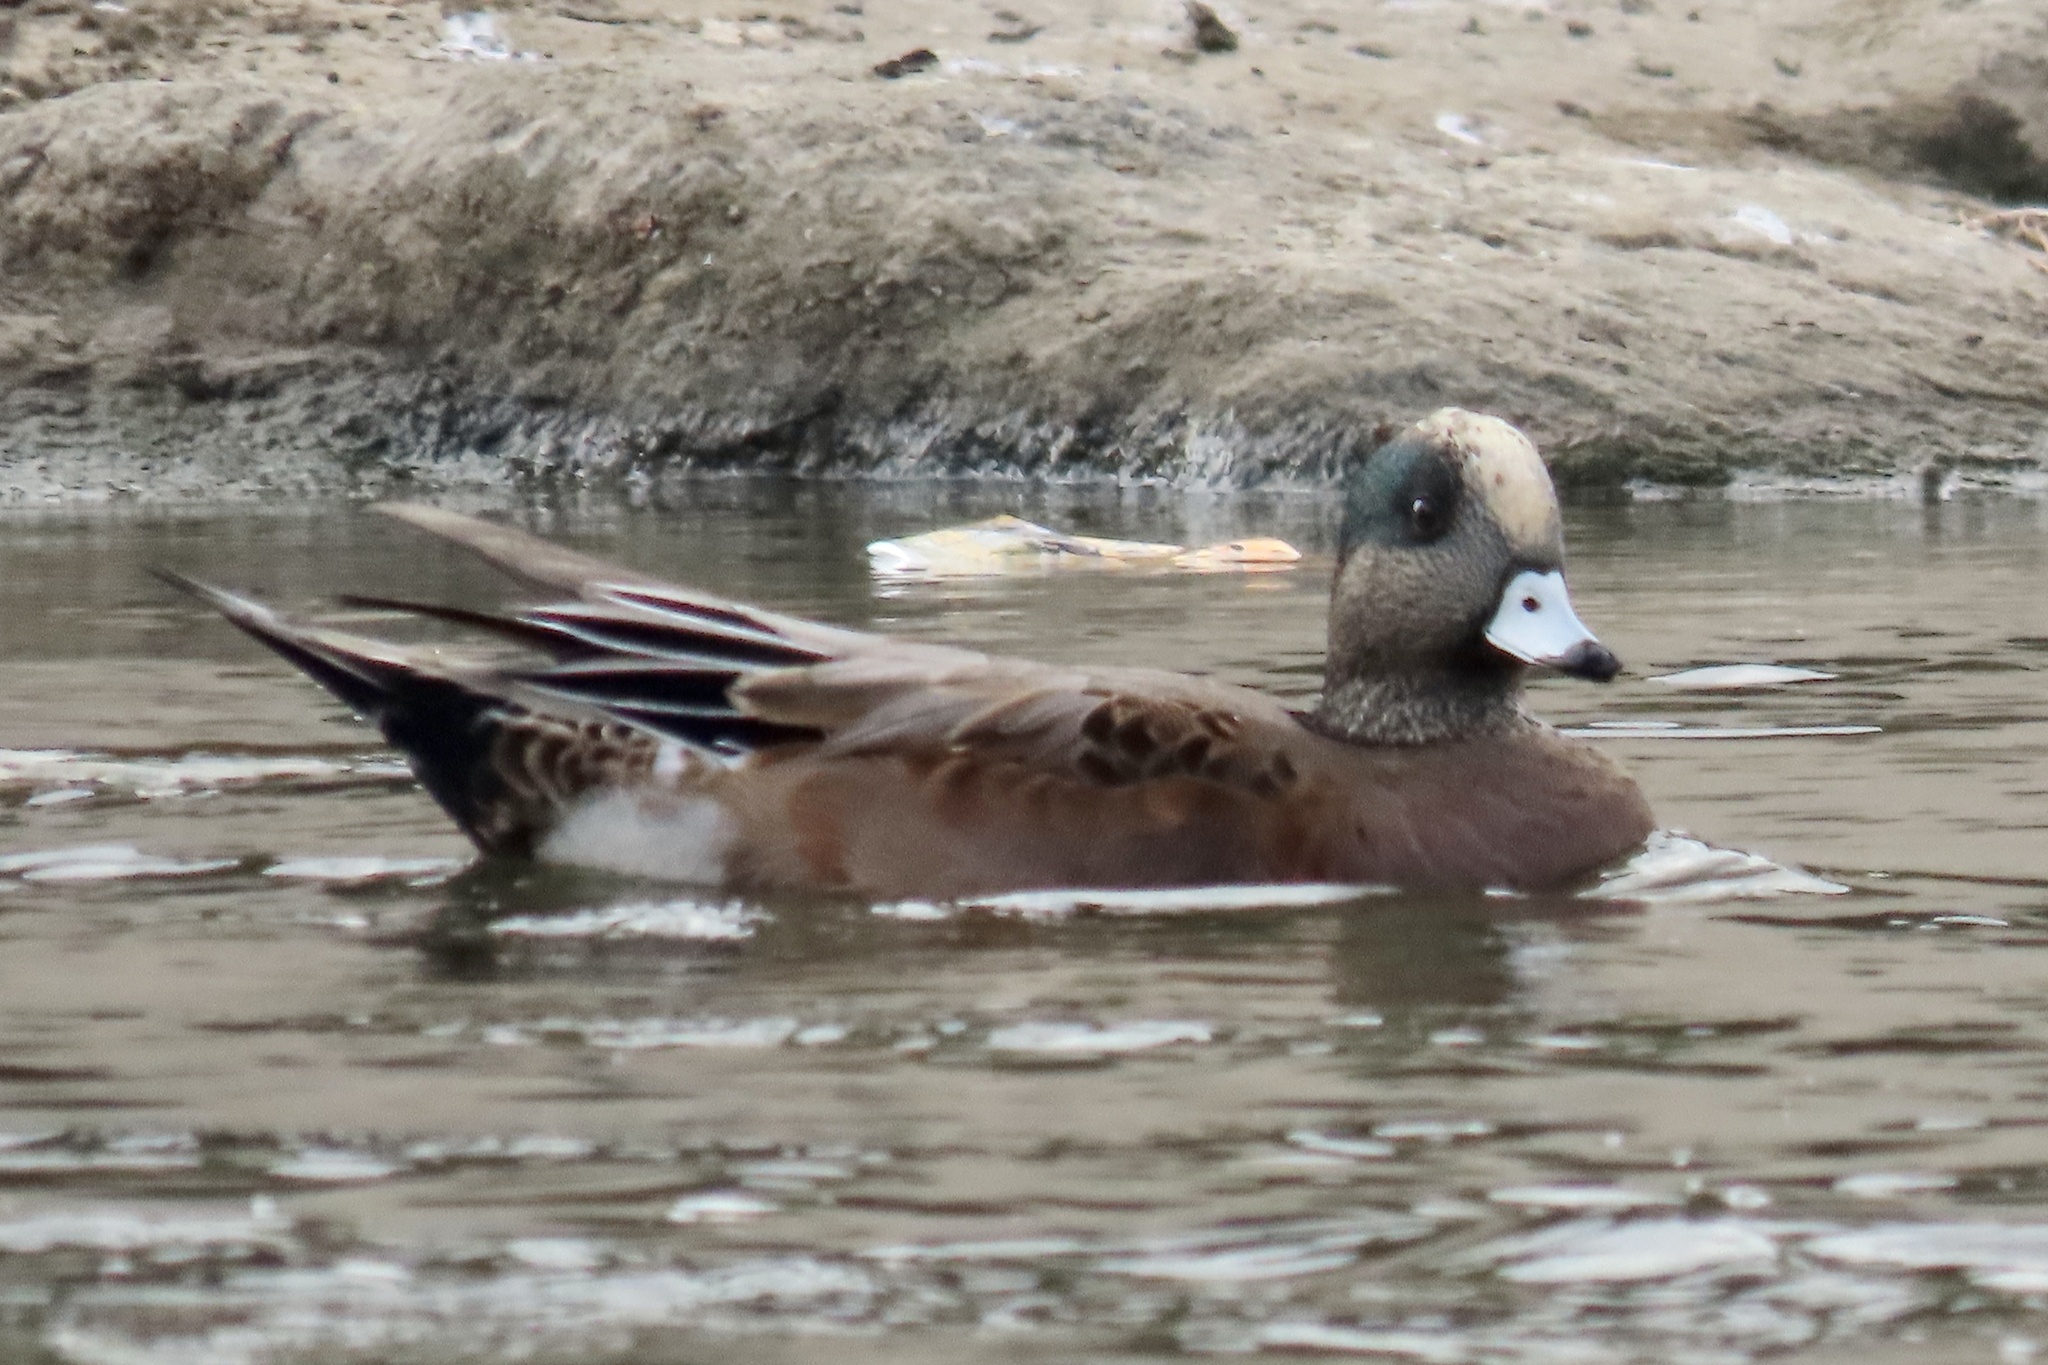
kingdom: Animalia
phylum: Chordata
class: Aves
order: Anseriformes
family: Anatidae
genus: Mareca
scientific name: Mareca americana
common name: American wigeon
